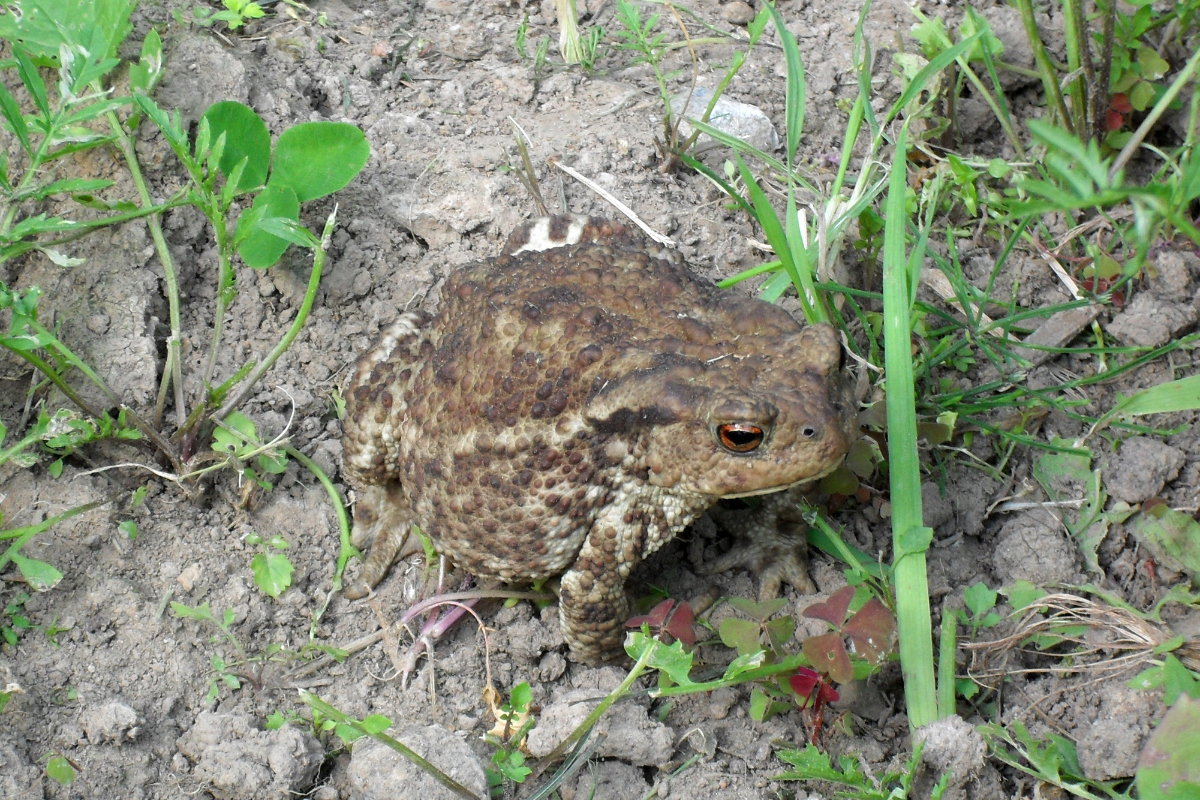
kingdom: Animalia
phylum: Chordata
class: Amphibia
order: Anura
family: Bufonidae
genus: Bufo
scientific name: Bufo bufo
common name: Common toad
